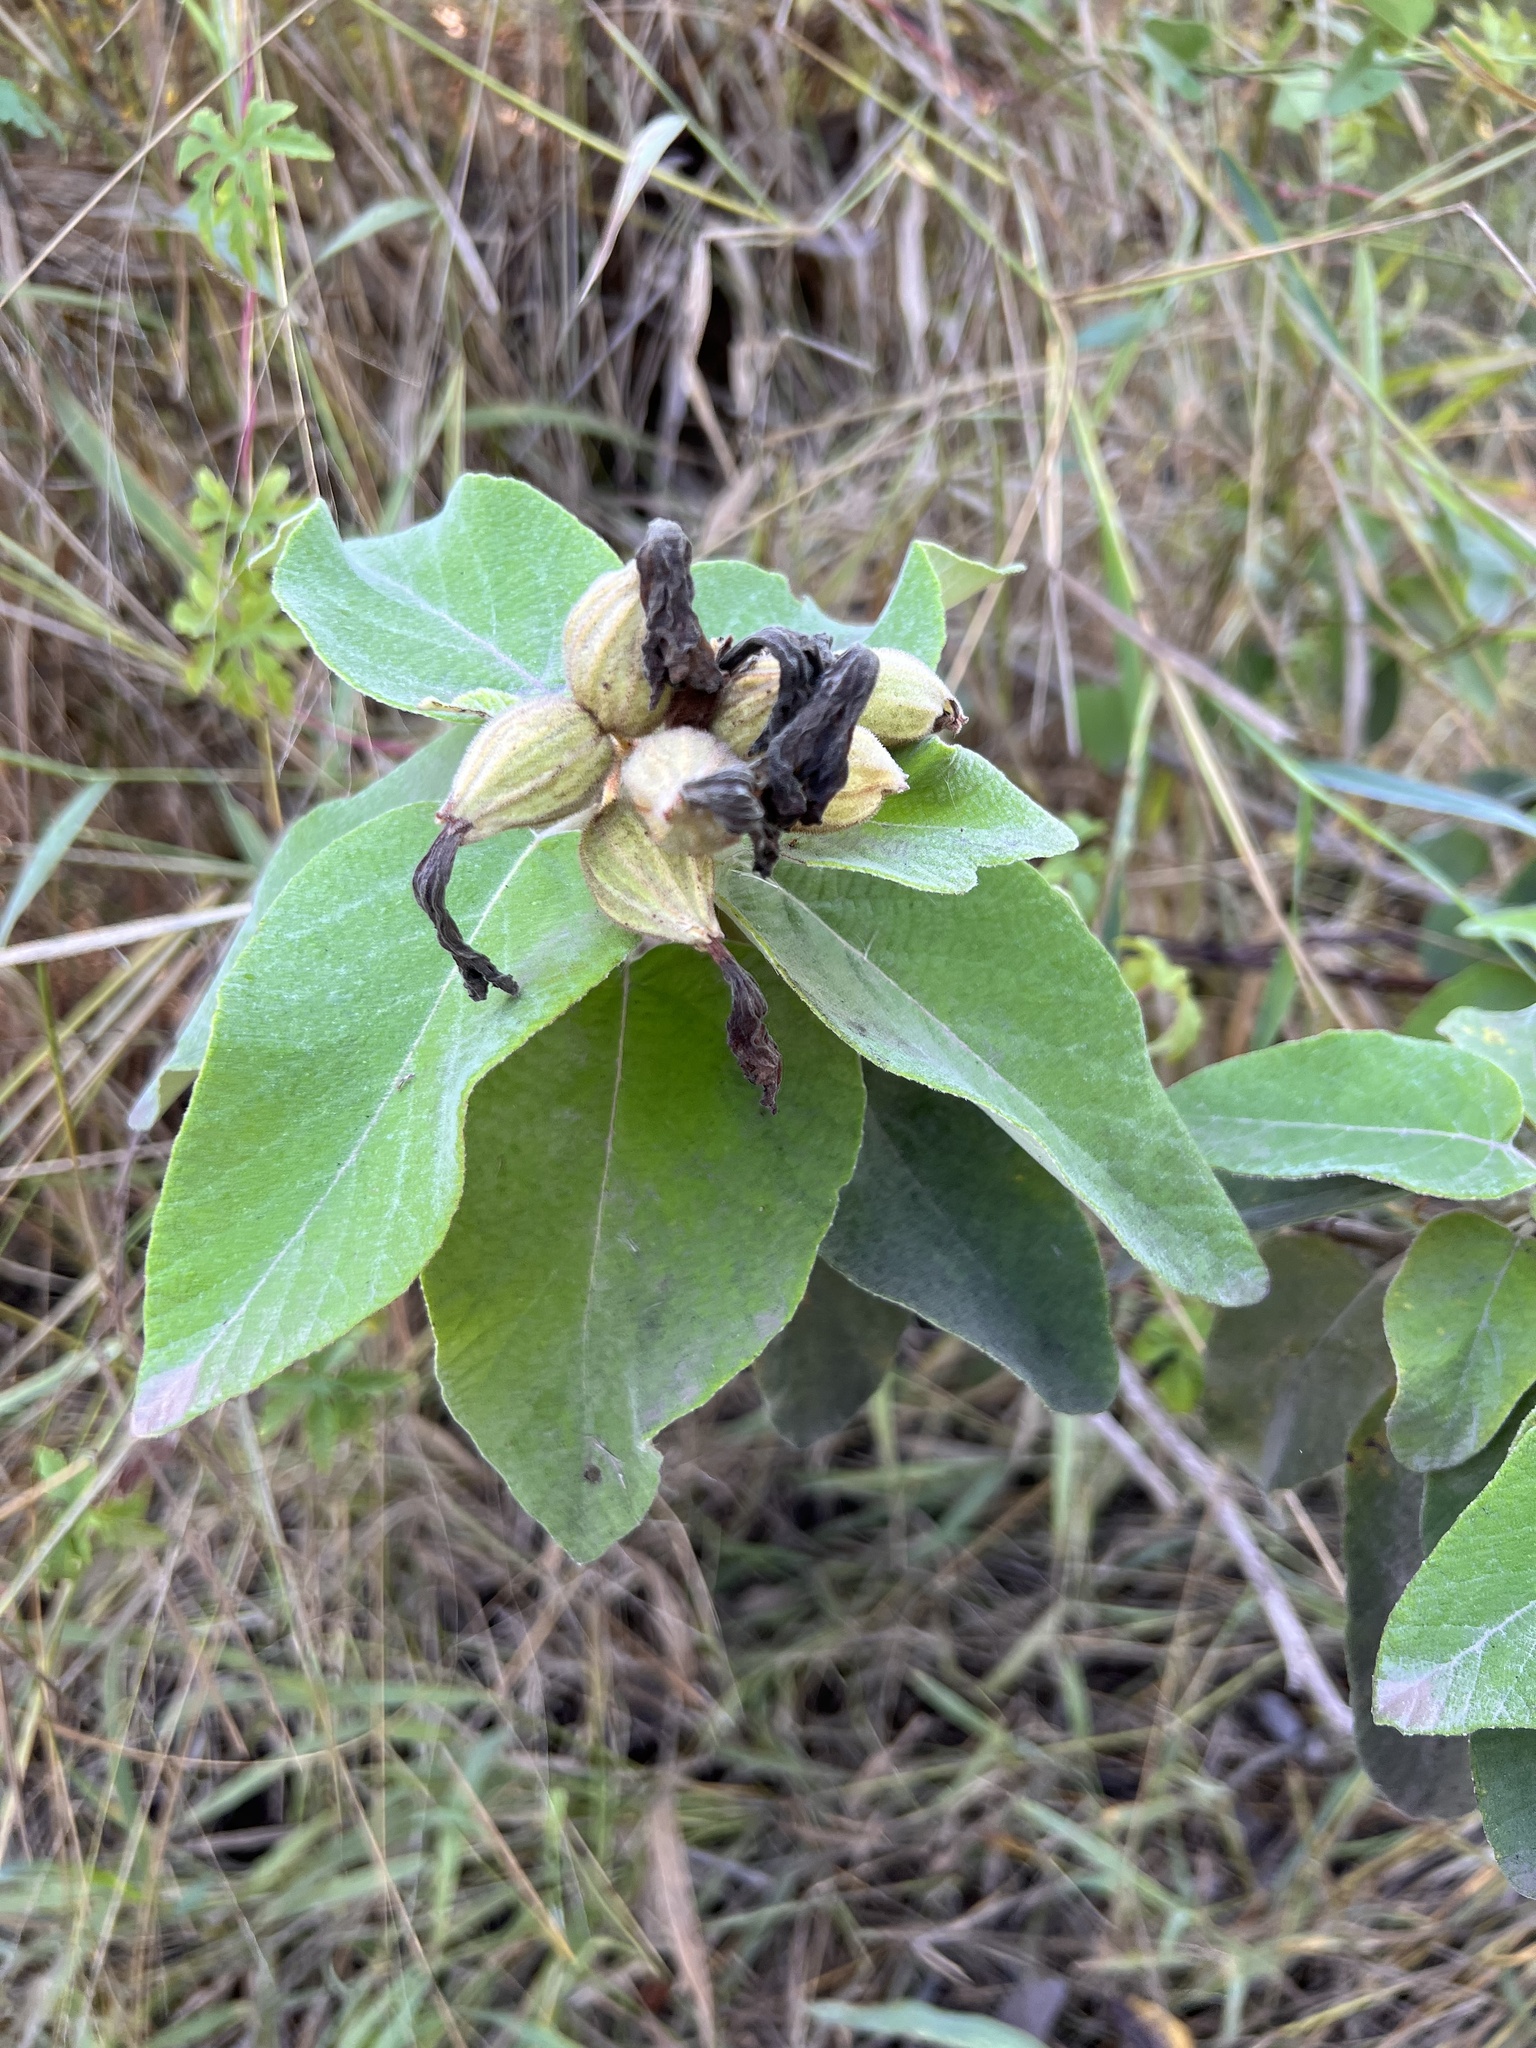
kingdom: Plantae
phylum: Tracheophyta
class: Magnoliopsida
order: Boraginales
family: Cordiaceae
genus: Cordia
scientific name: Cordia boissieri
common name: Mexican-olive
